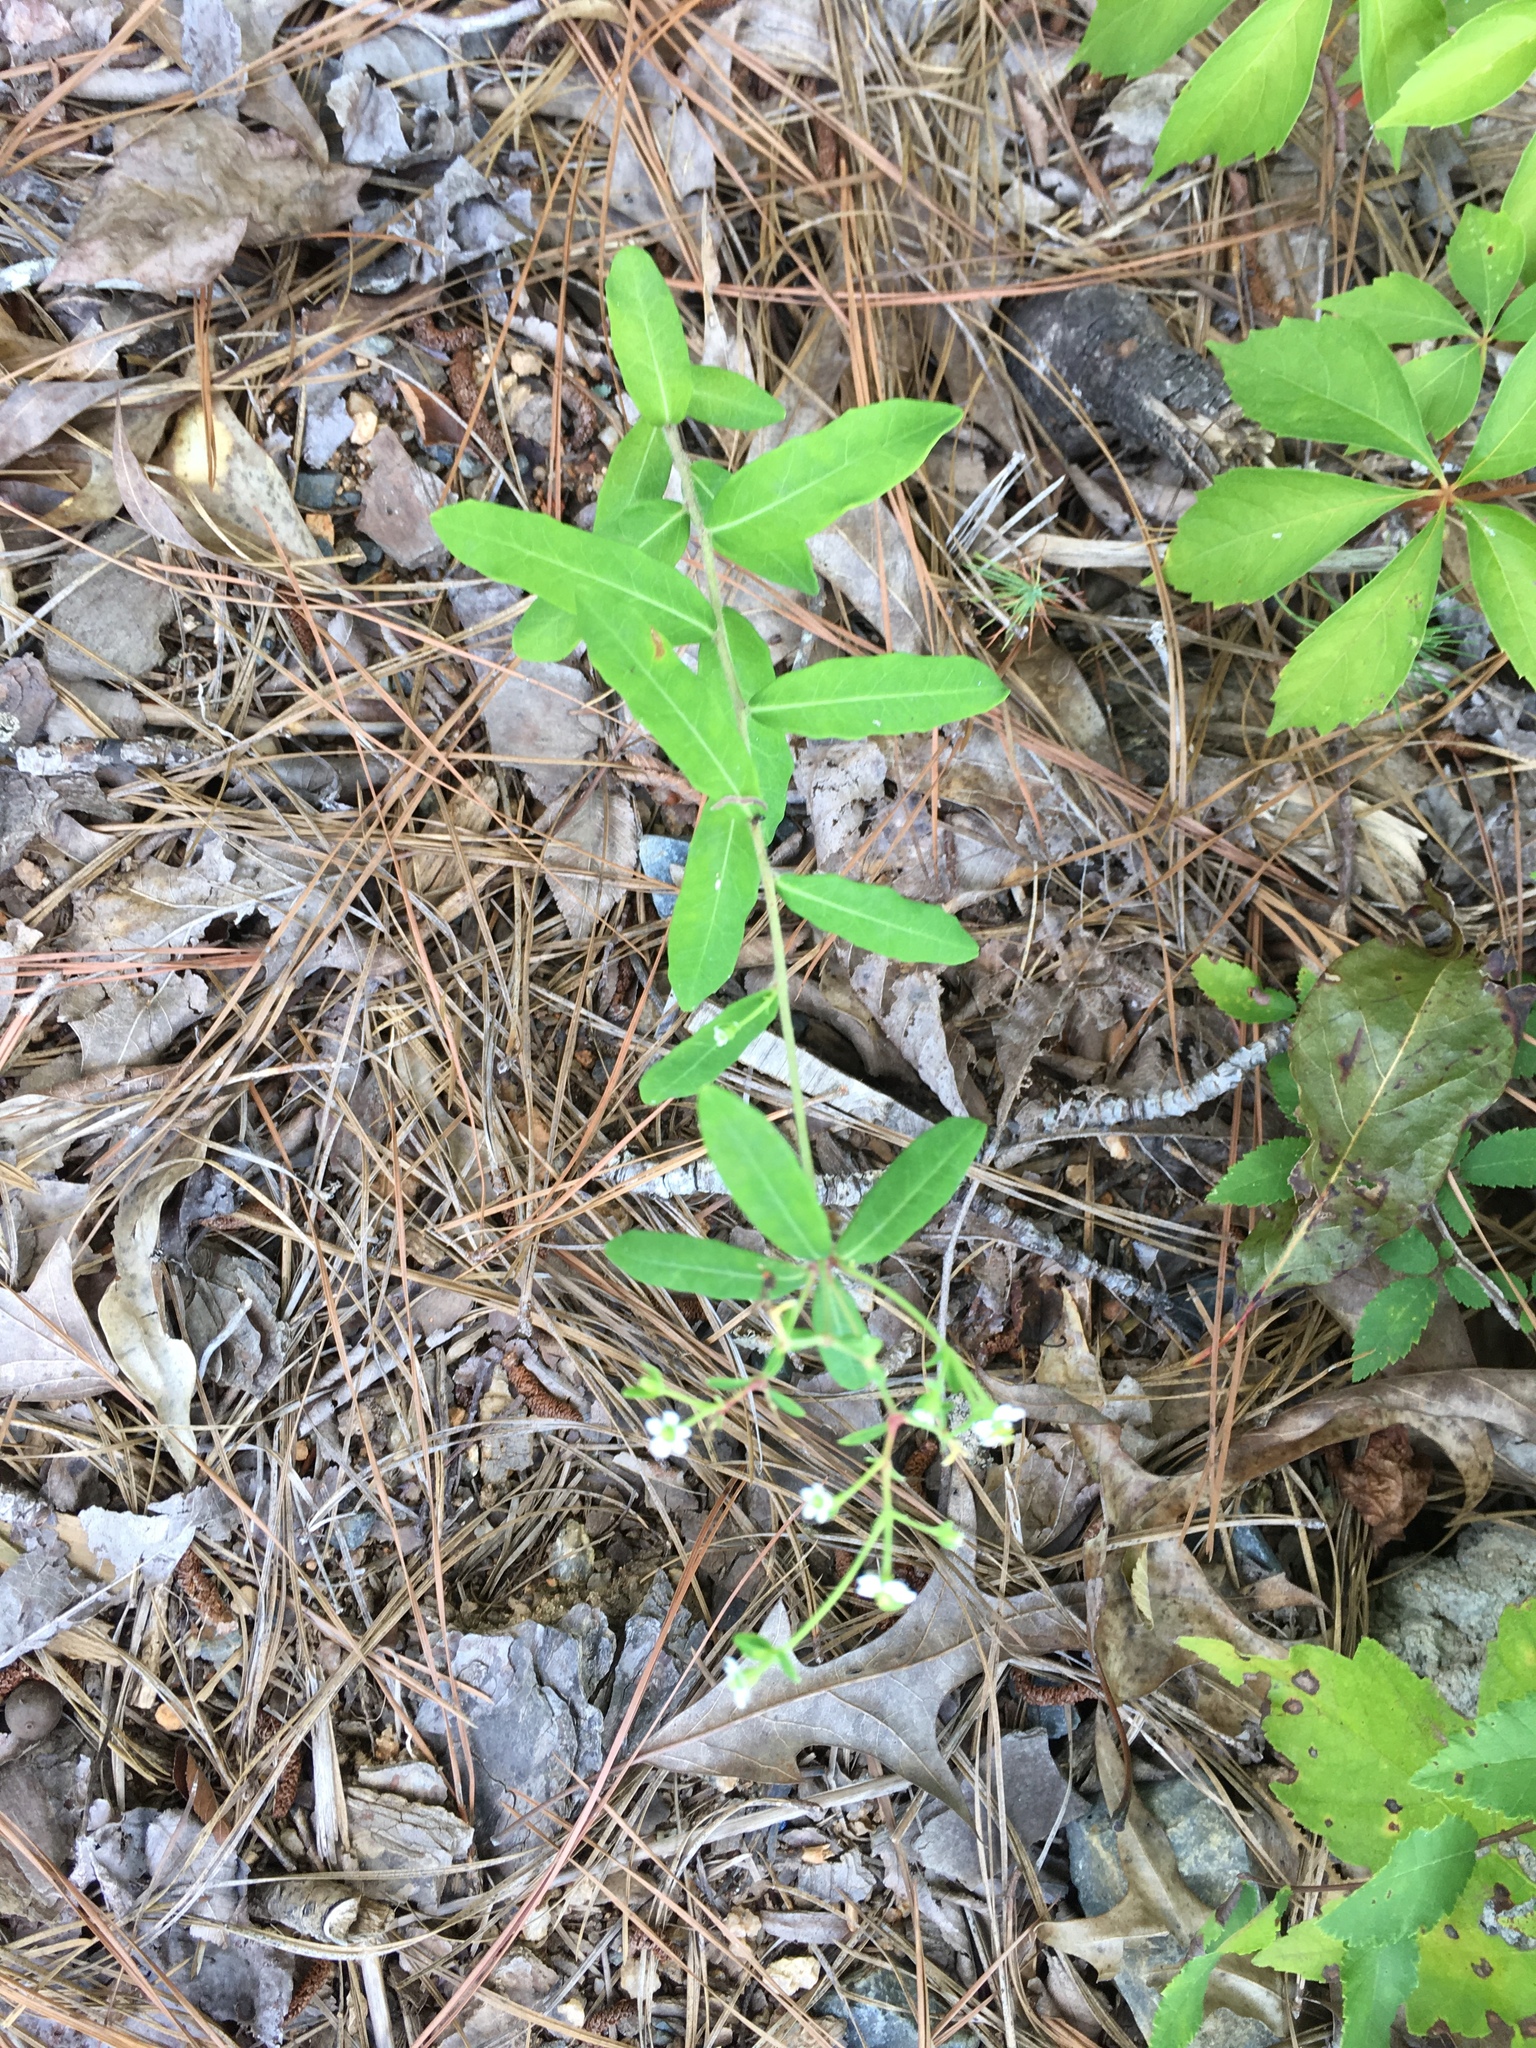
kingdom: Plantae
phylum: Tracheophyta
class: Magnoliopsida
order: Malpighiales
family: Euphorbiaceae
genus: Euphorbia
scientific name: Euphorbia corollata
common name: Flowering spurge
